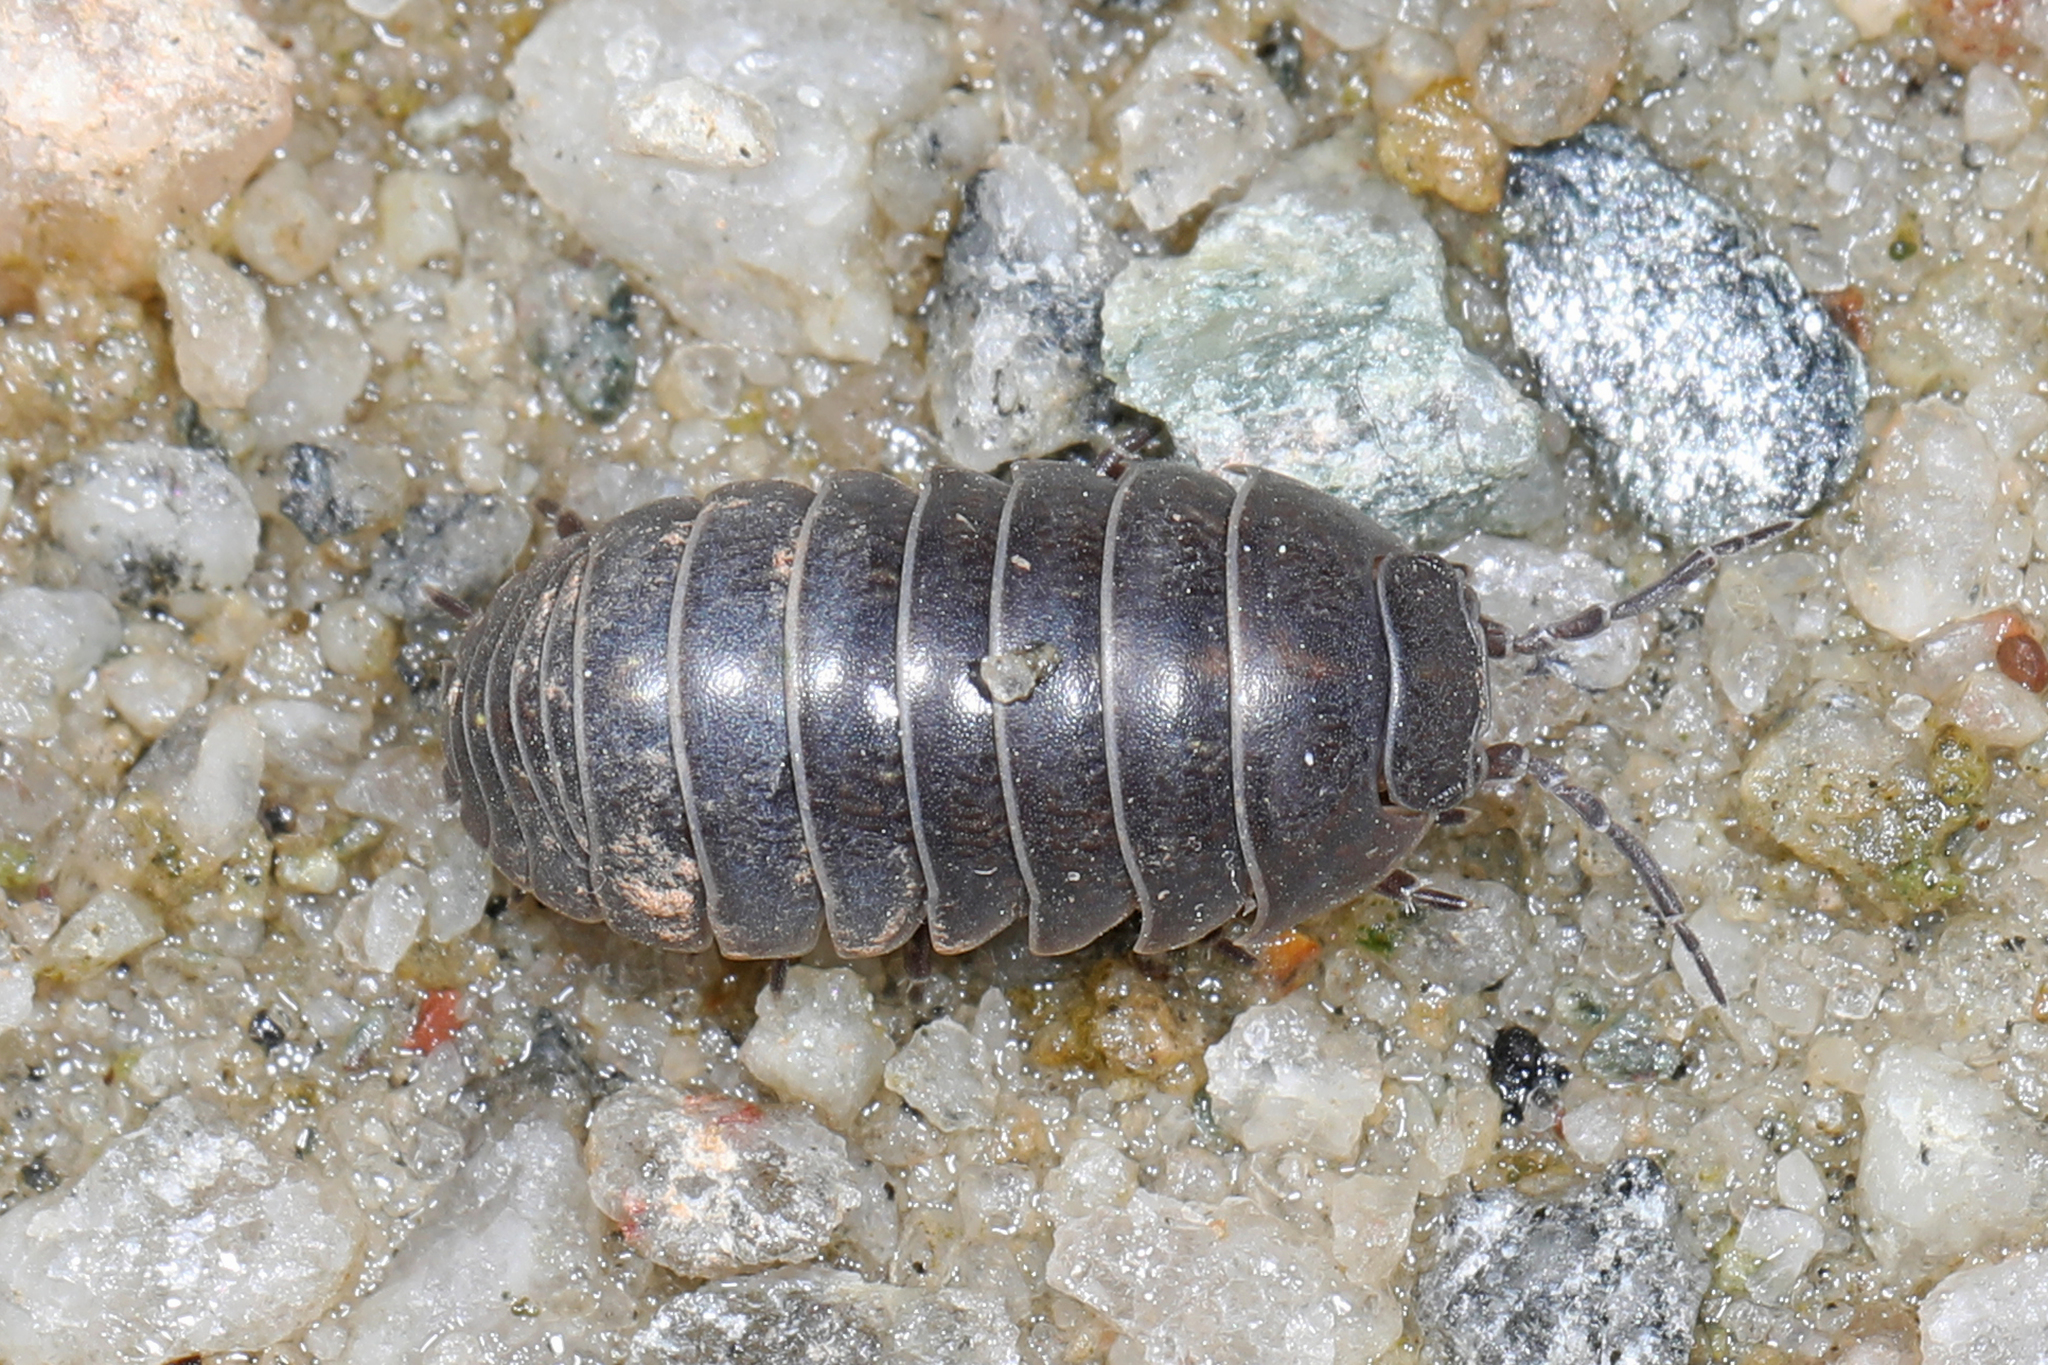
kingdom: Animalia
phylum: Arthropoda
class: Malacostraca
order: Isopoda
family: Armadillidiidae
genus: Armadillidium
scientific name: Armadillidium vulgare
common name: Common pill woodlouse
